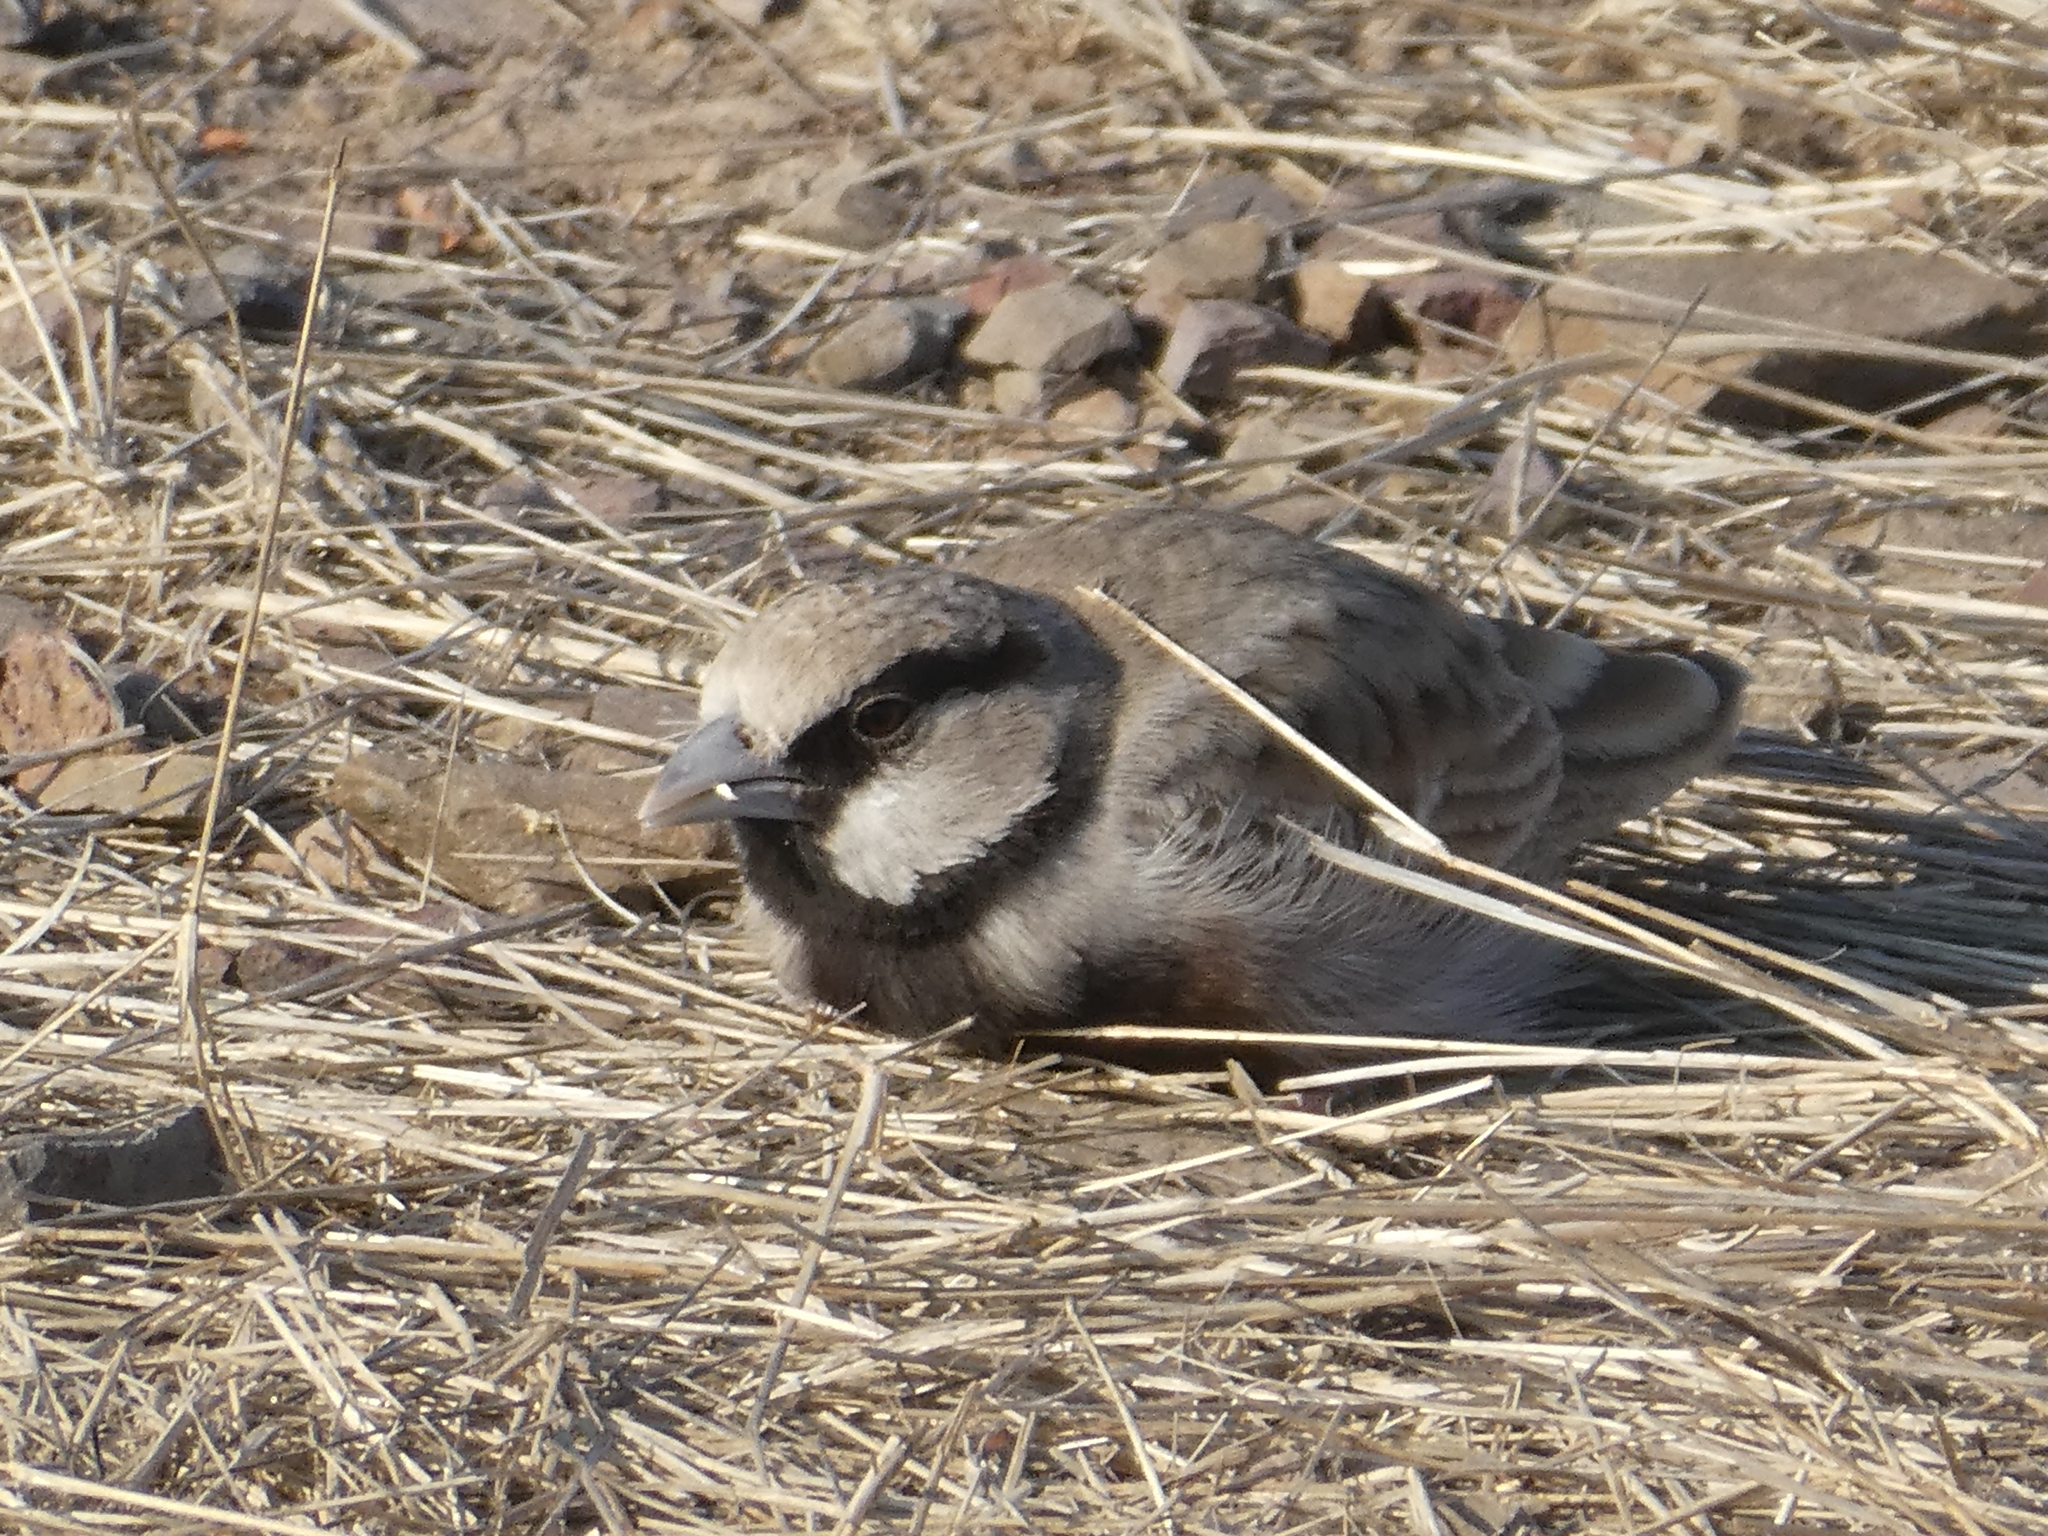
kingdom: Animalia
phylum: Chordata
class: Aves
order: Passeriformes
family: Alaudidae
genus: Eremopterix
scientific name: Eremopterix griseus
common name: Ashy-crowned sparrow-lark
